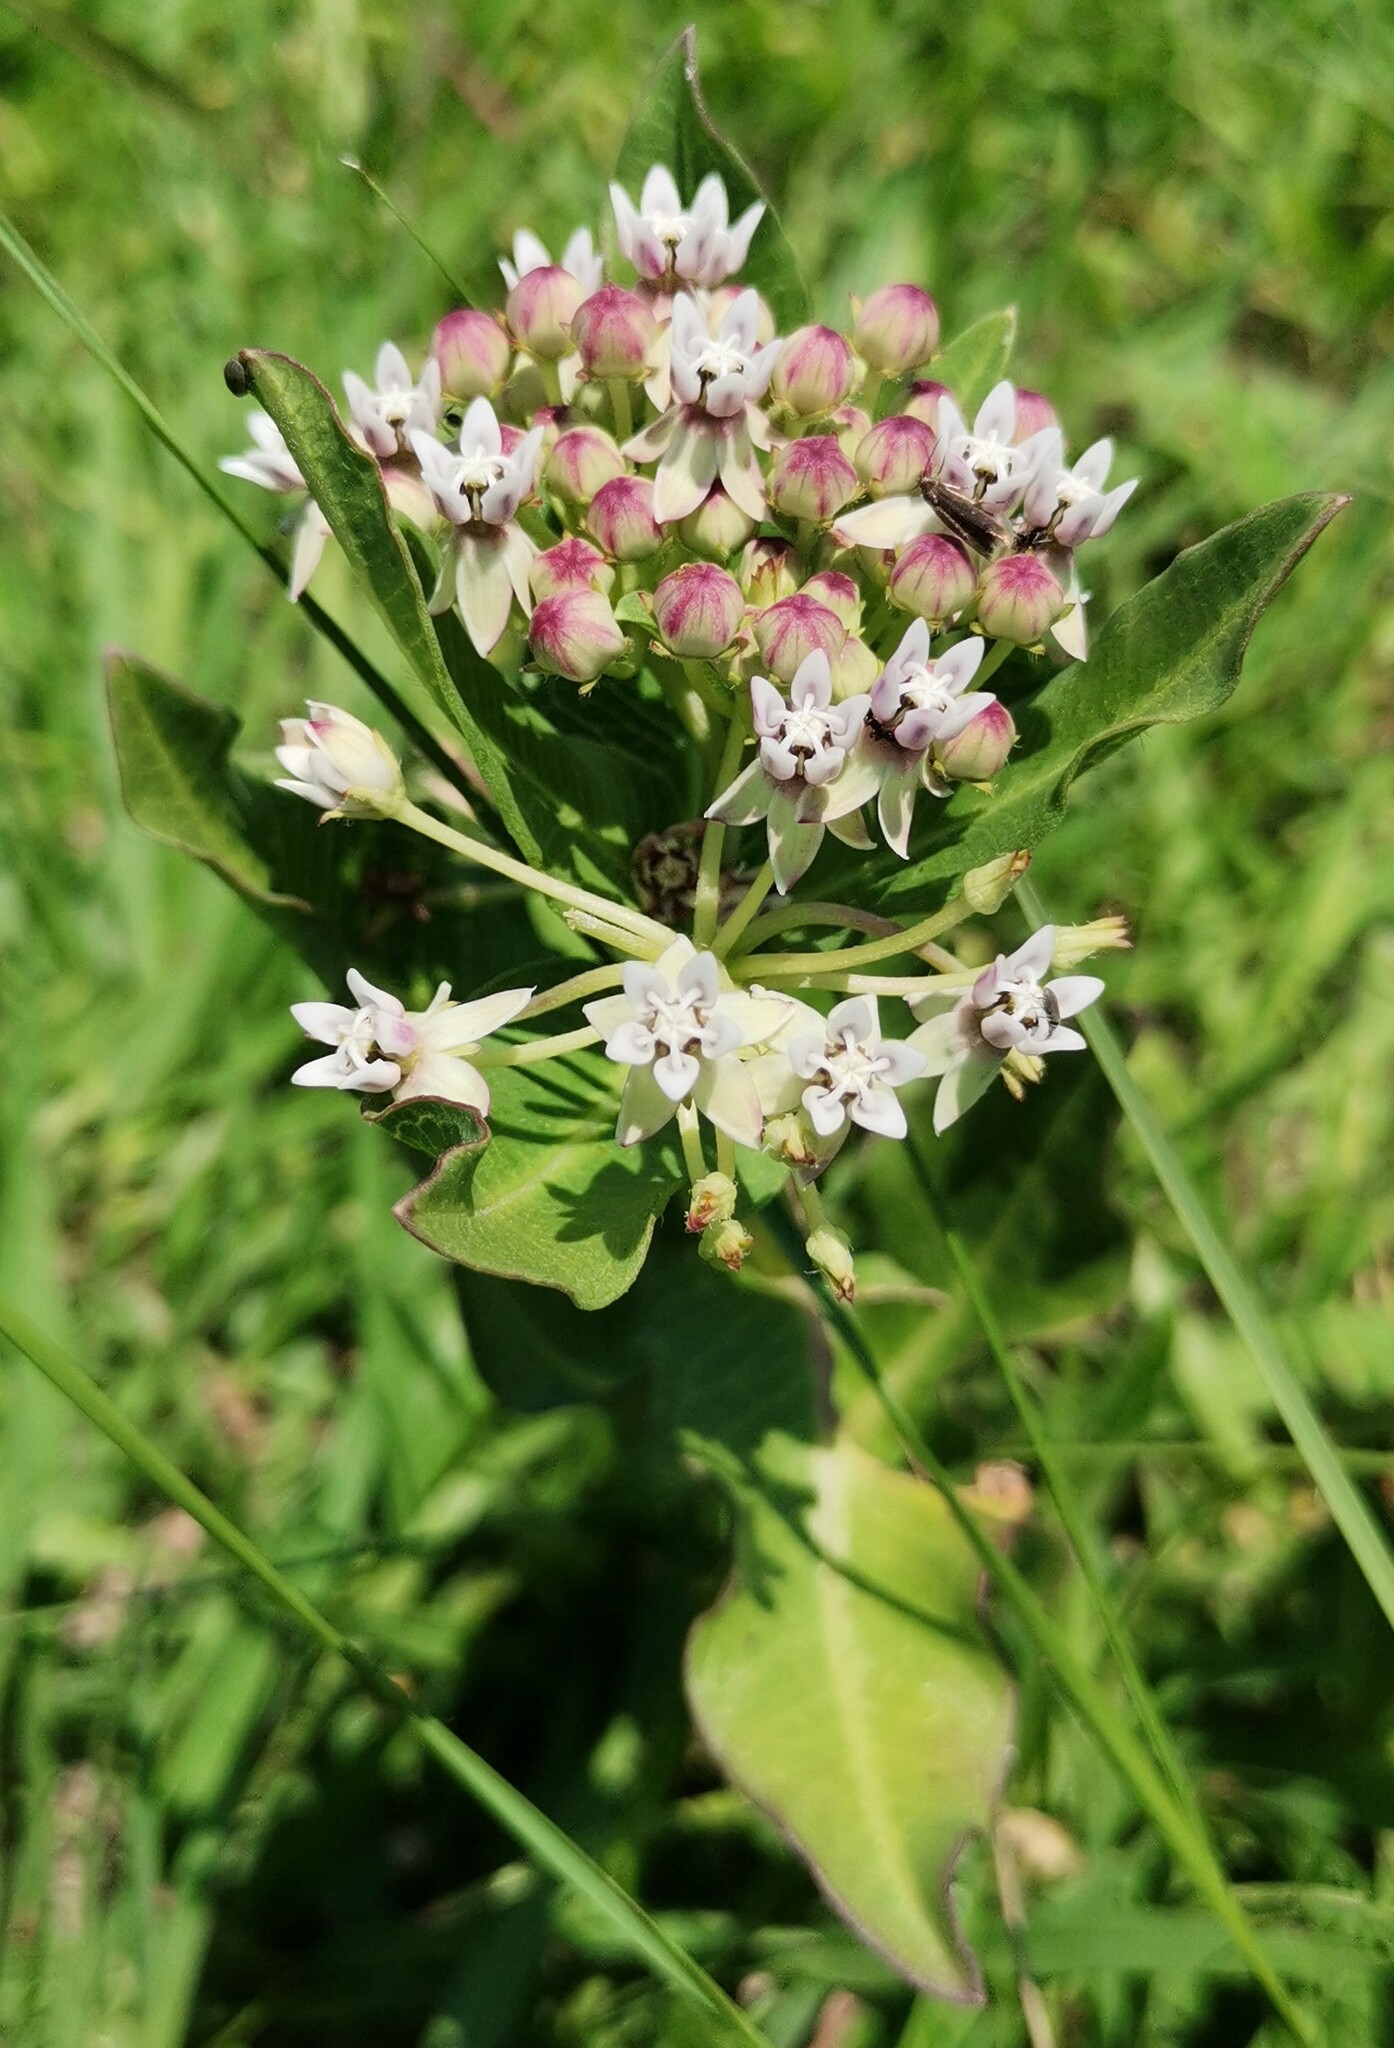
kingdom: Plantae
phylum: Tracheophyta
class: Magnoliopsida
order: Gentianales
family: Apocynaceae
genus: Asclepias
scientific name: Asclepias pratensis
